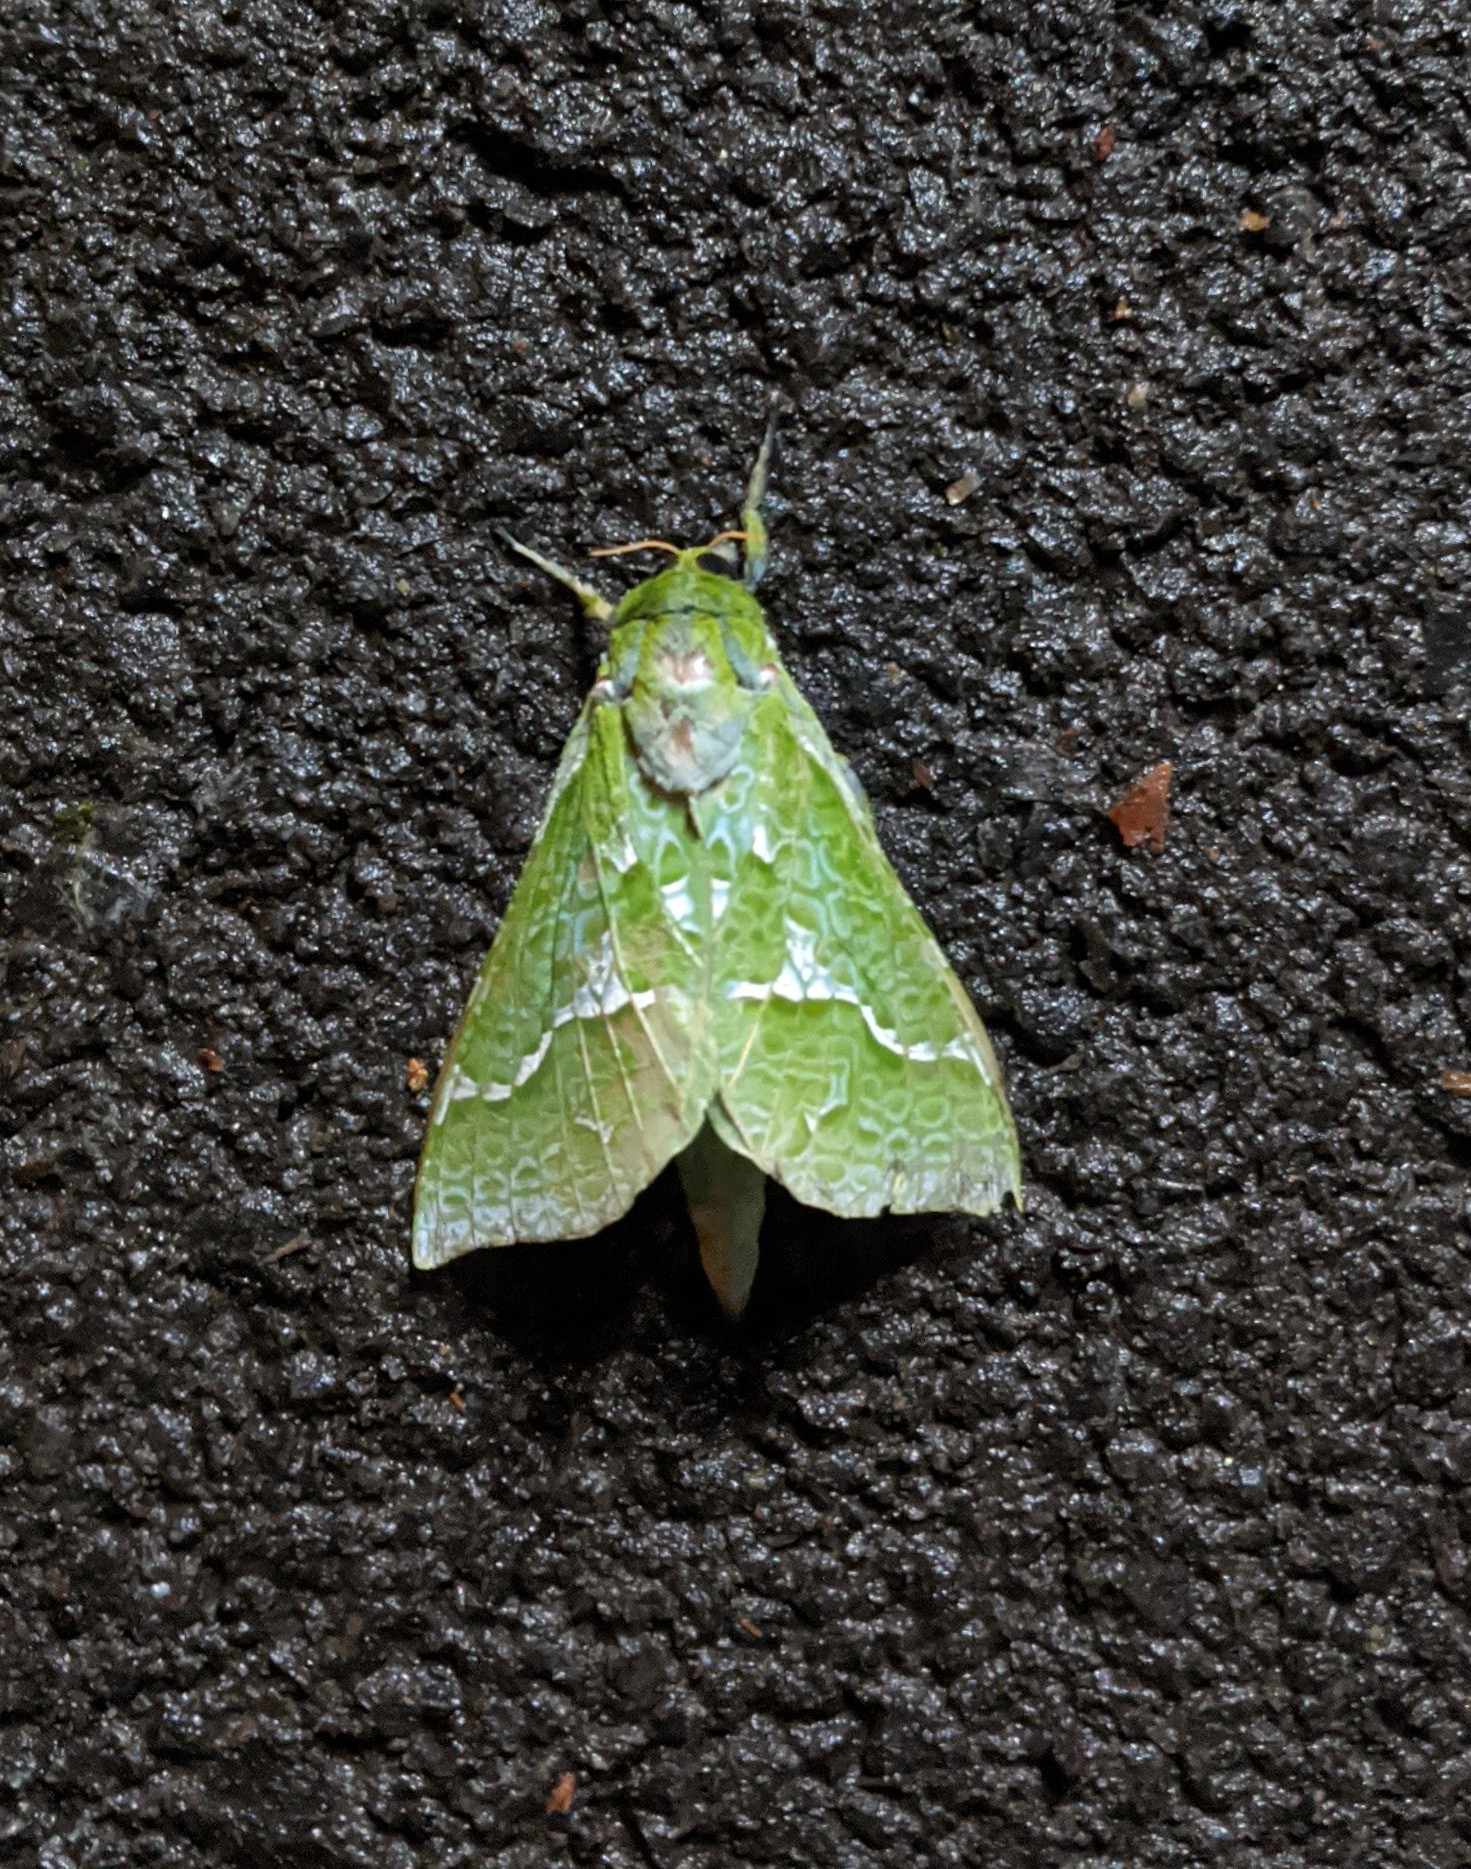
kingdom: Animalia
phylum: Arthropoda
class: Insecta
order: Lepidoptera
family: Hepialidae
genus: Aenetus
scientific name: Aenetus virescens
